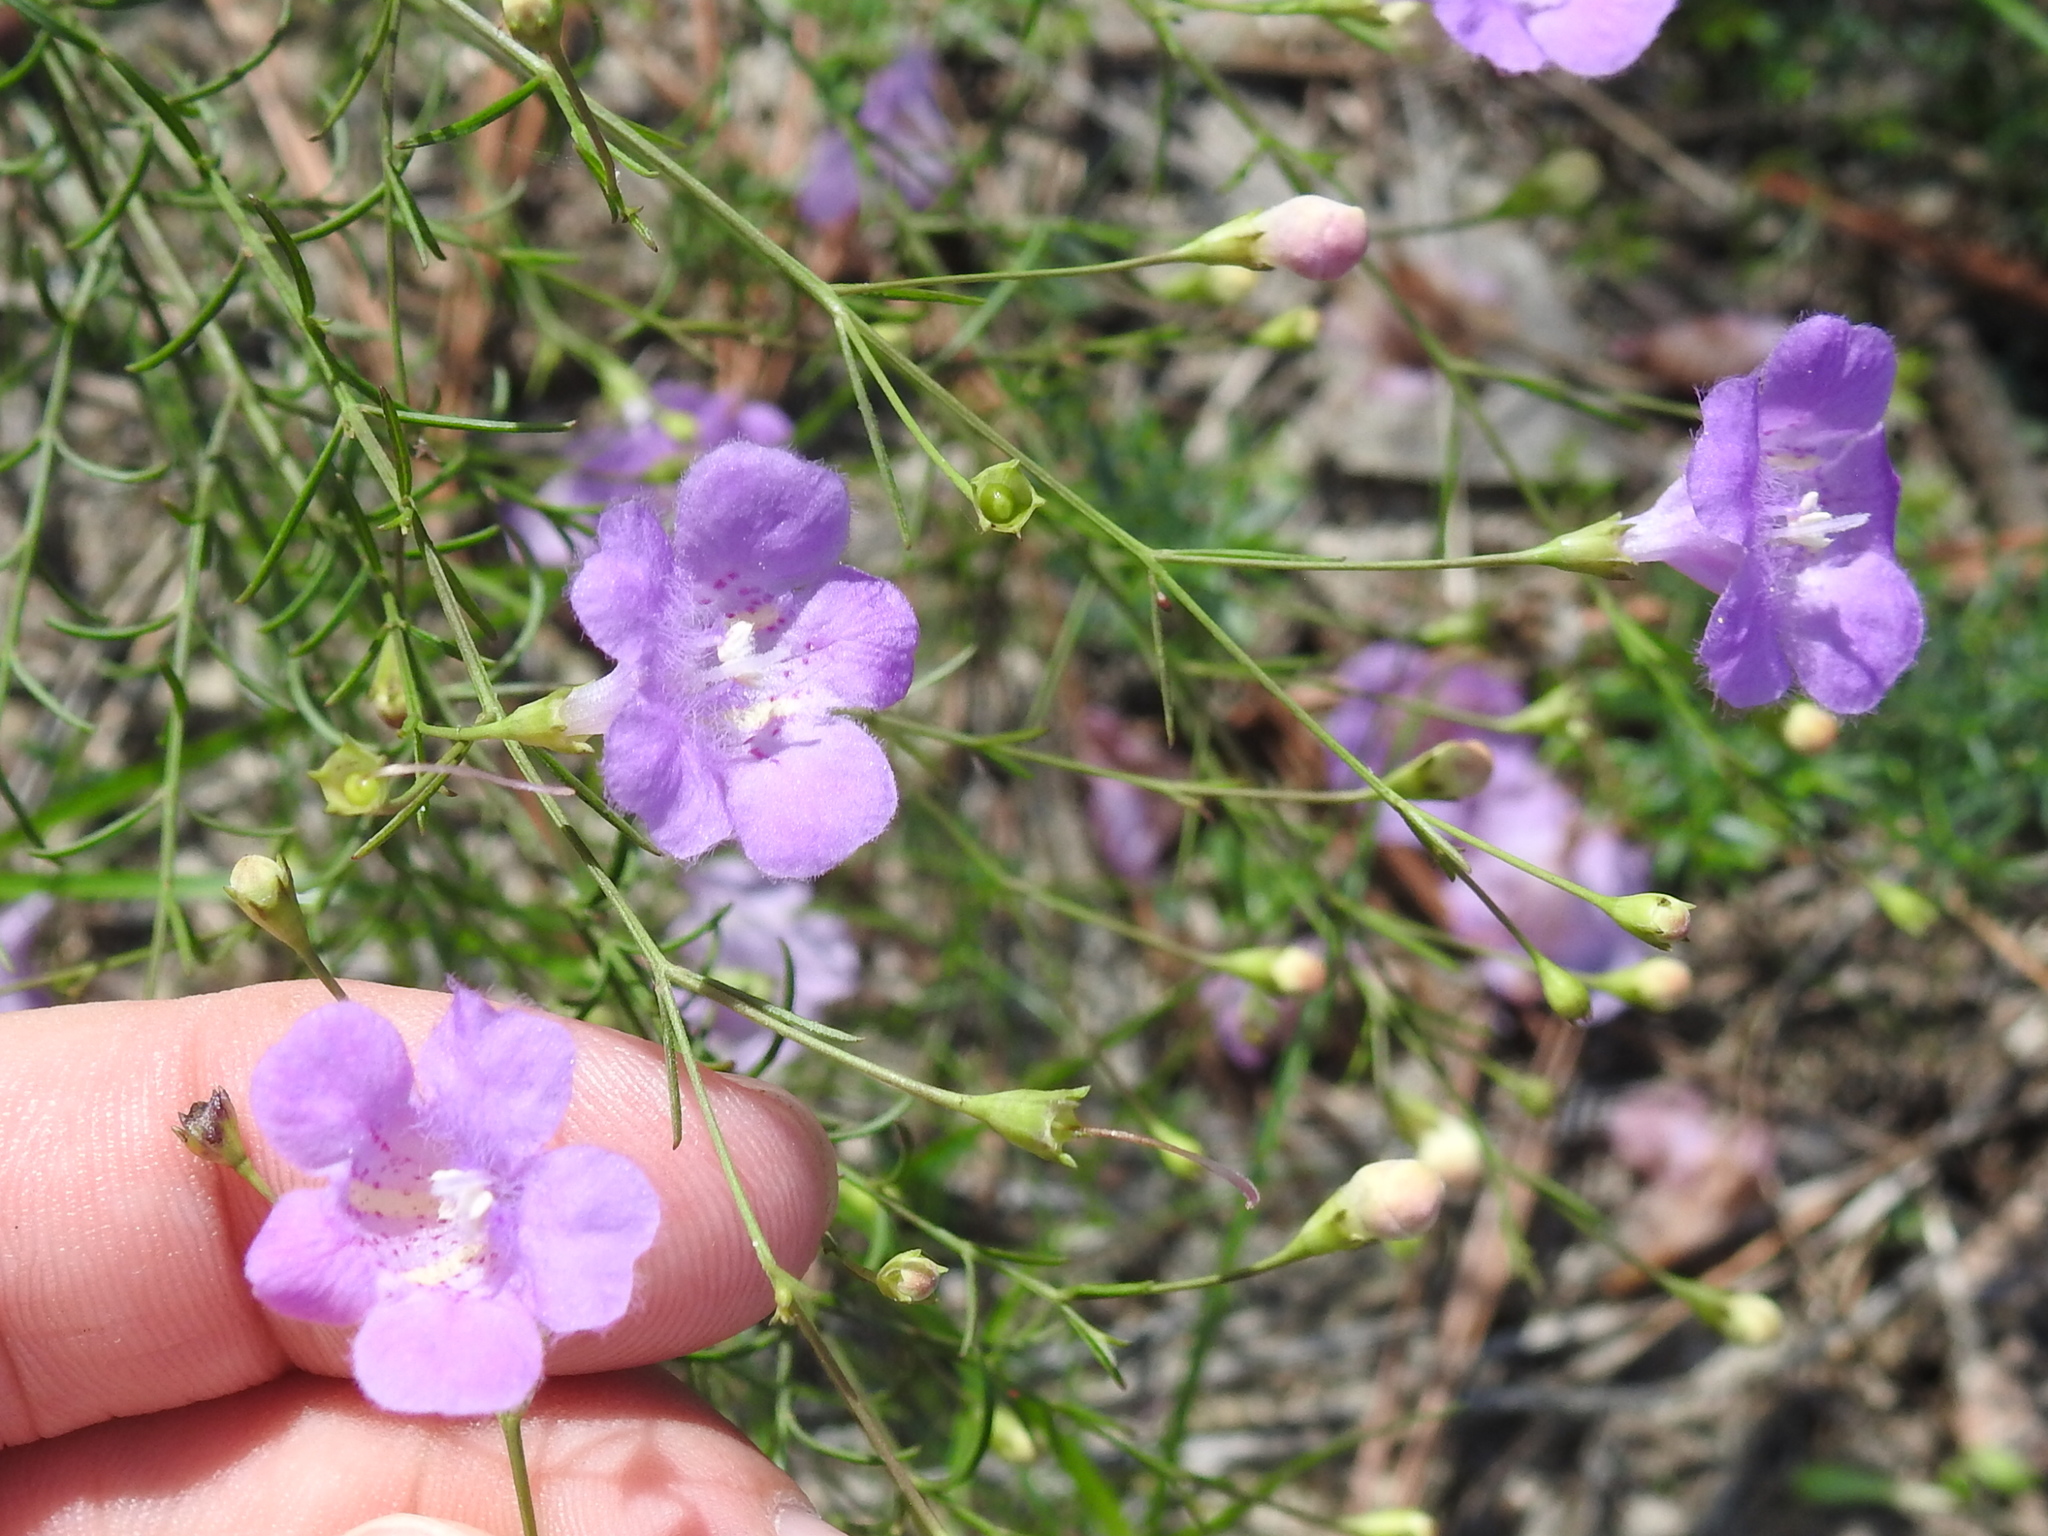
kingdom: Plantae
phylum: Tracheophyta
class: Magnoliopsida
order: Lamiales
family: Orobanchaceae
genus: Agalinis
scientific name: Agalinis strictifolia
